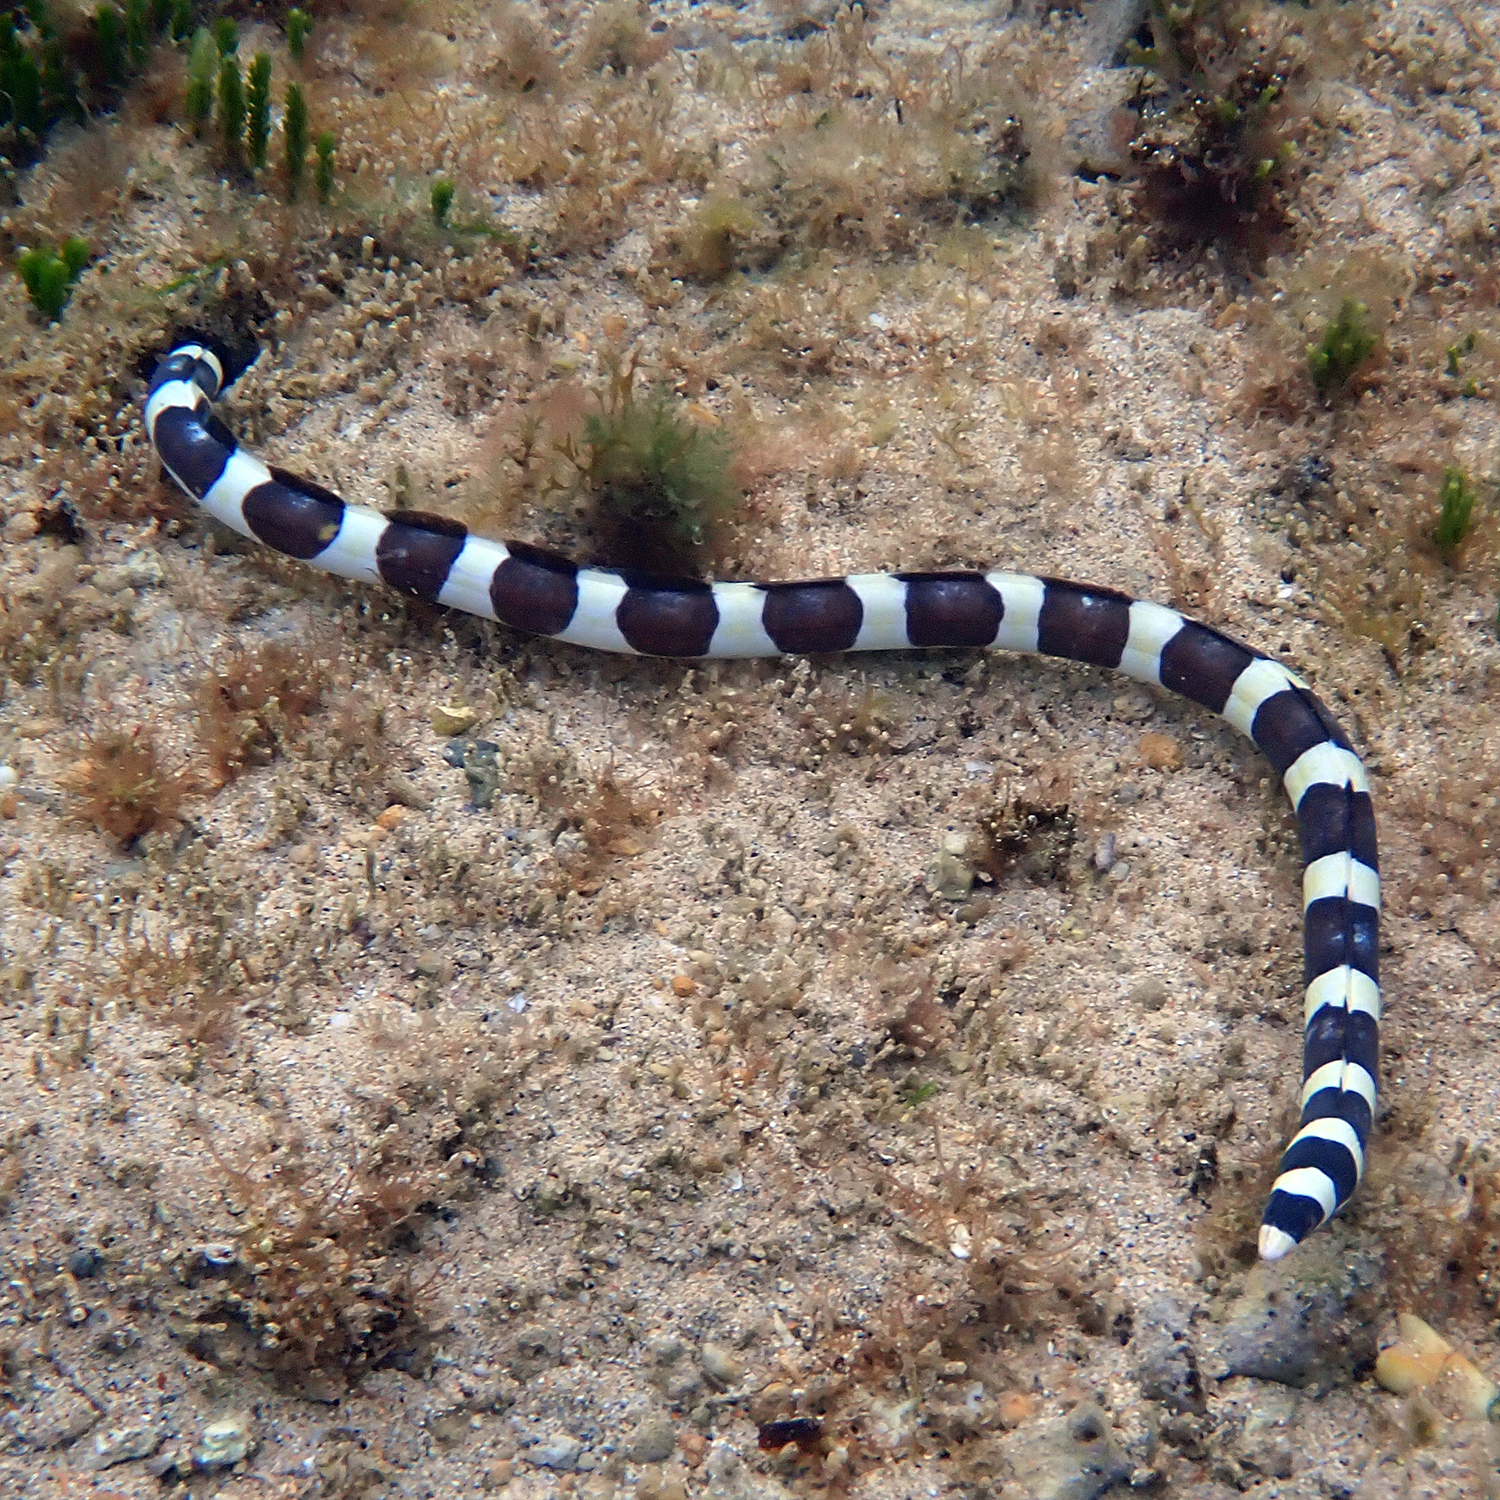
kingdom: Animalia
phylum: Chordata
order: Anguilliformes
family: Ophichthidae
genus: Leiuranus
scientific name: Leiuranus semicinctus
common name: Saddled snake eel
